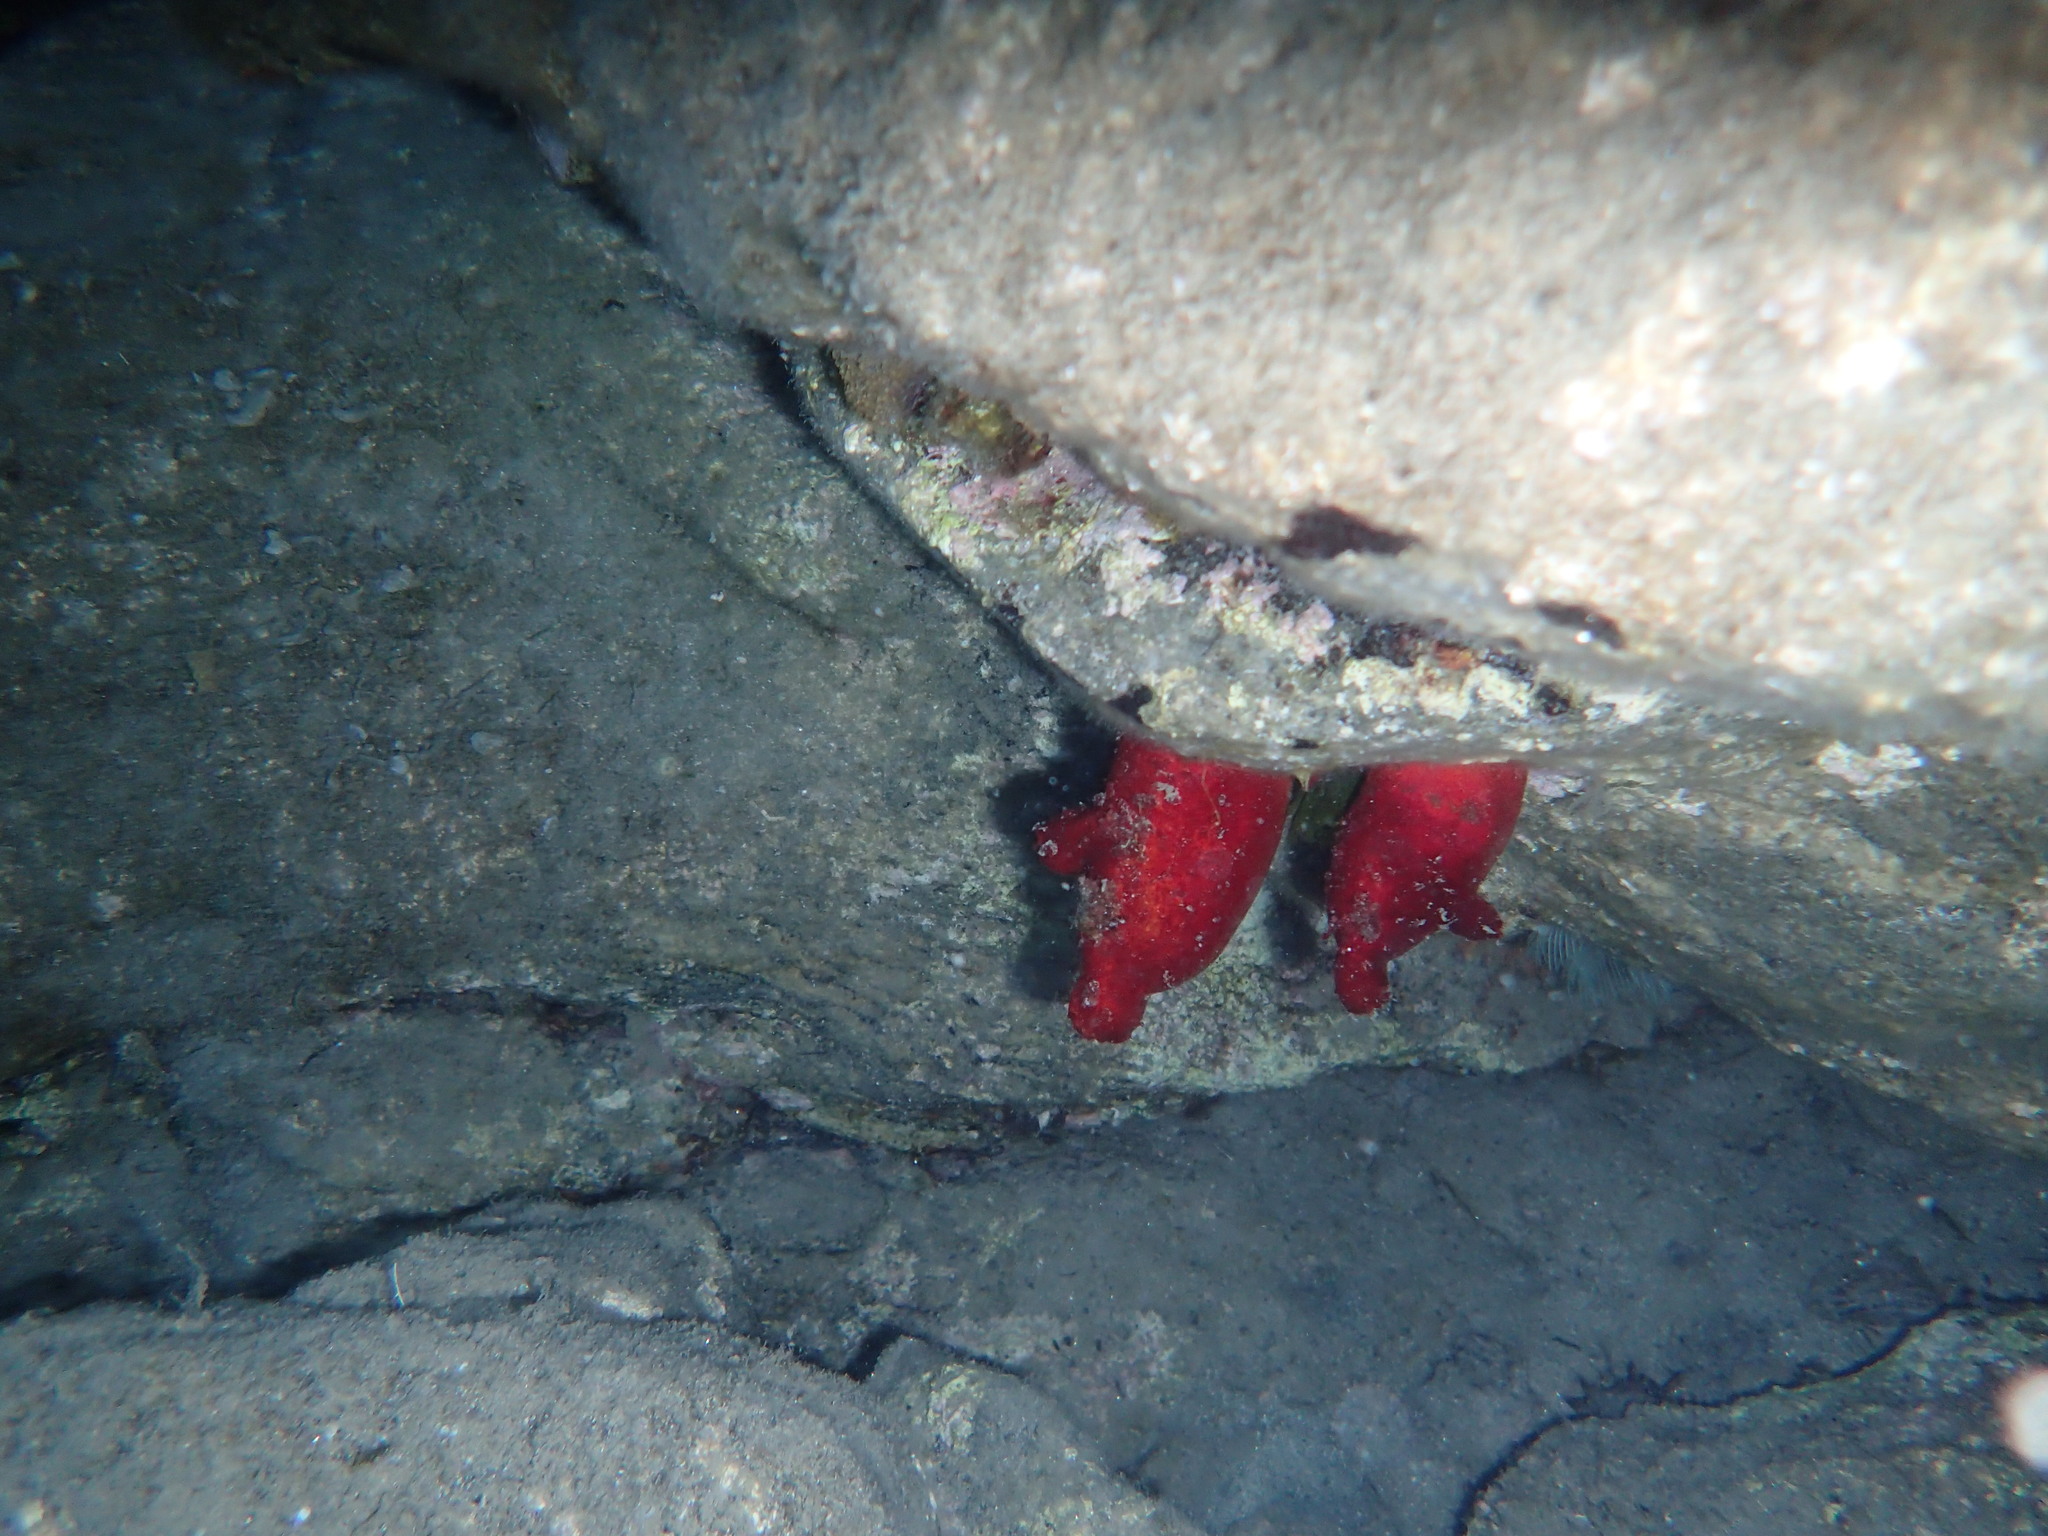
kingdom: Animalia
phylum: Chordata
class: Ascidiacea
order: Stolidobranchia
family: Pyuridae
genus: Halocynthia
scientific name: Halocynthia papillosa
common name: Red sea-squirt
